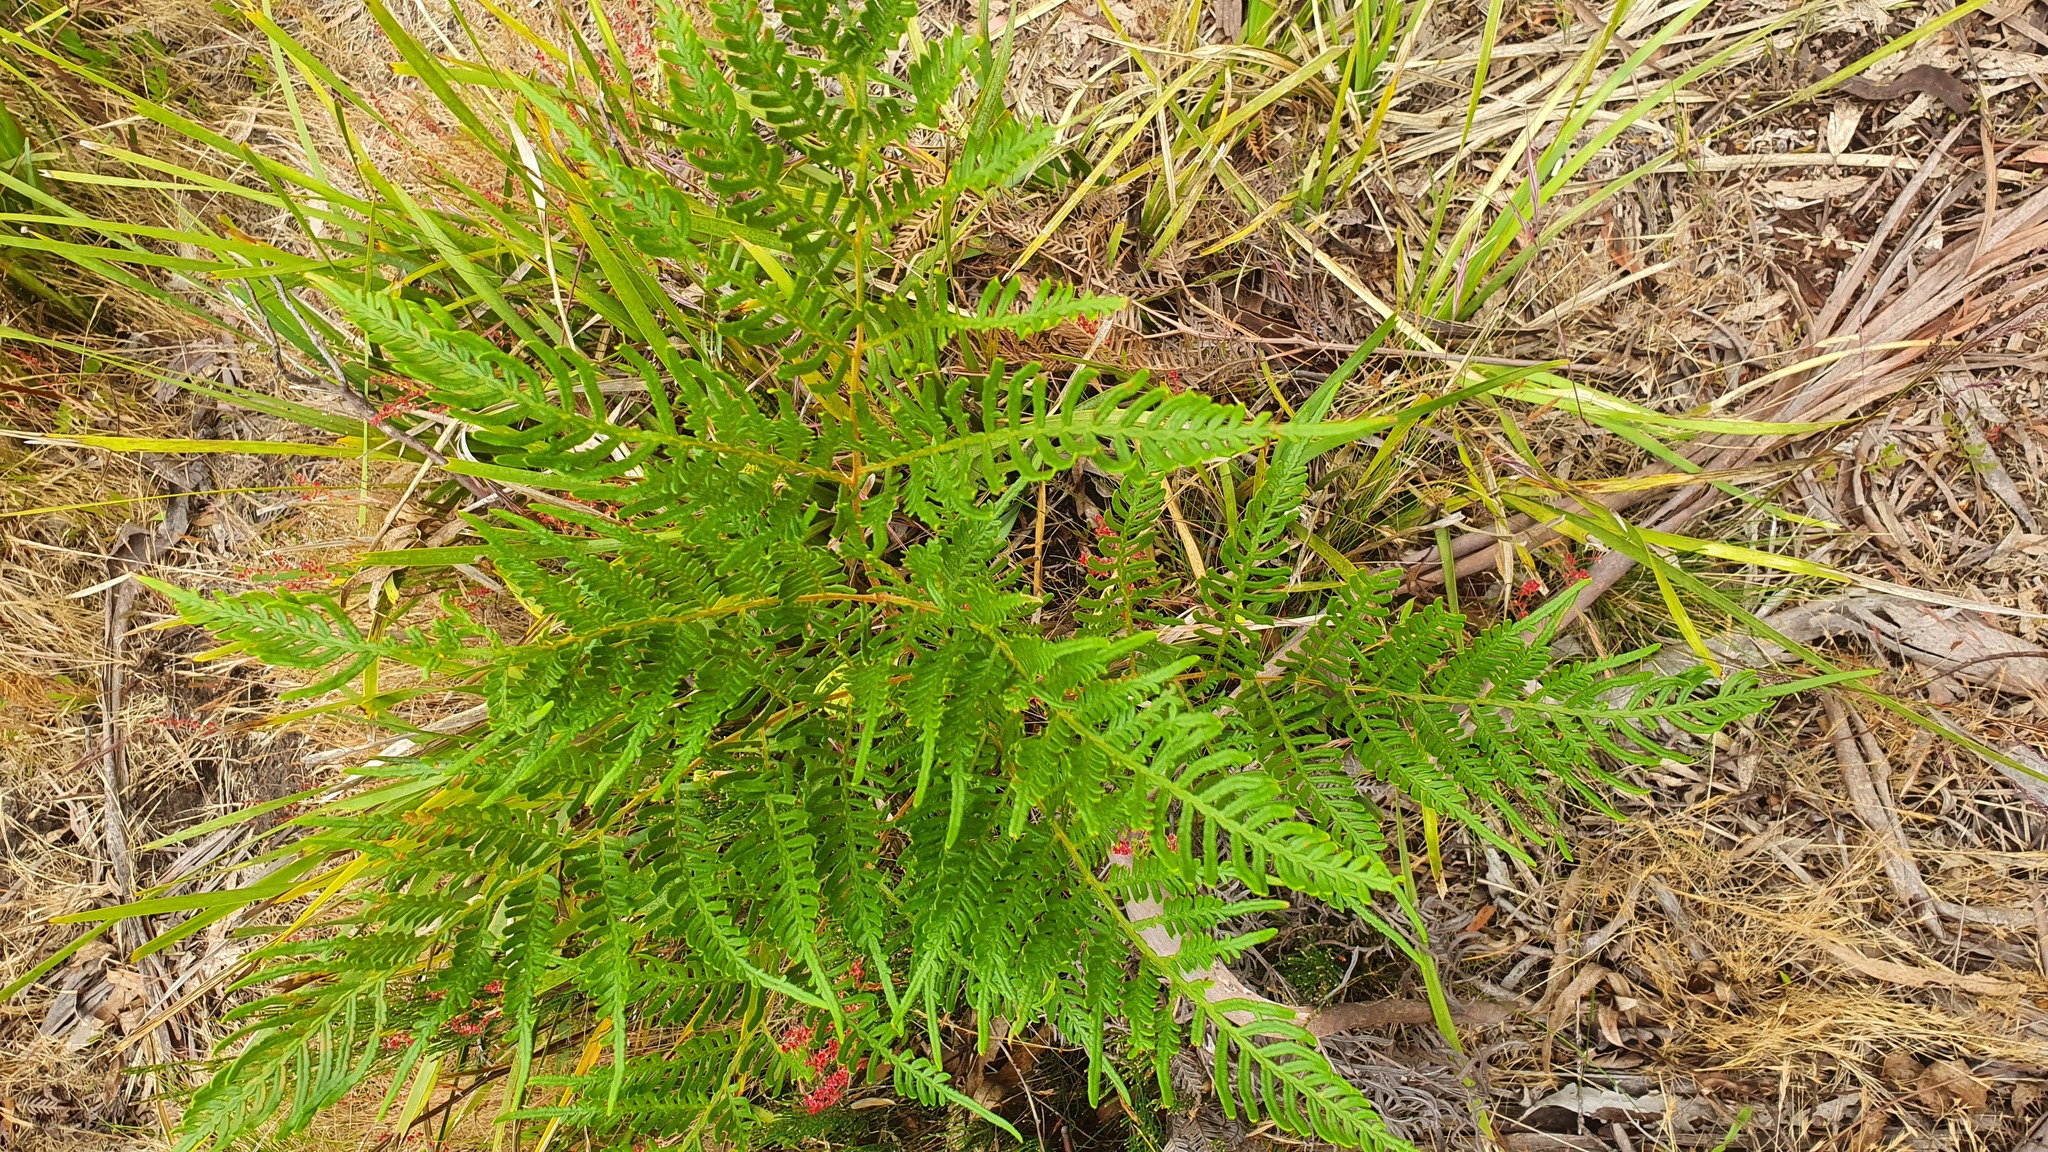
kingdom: Plantae
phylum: Tracheophyta
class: Polypodiopsida
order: Polypodiales
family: Dennstaedtiaceae
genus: Pteridium
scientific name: Pteridium esculentum
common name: Bracken fern
